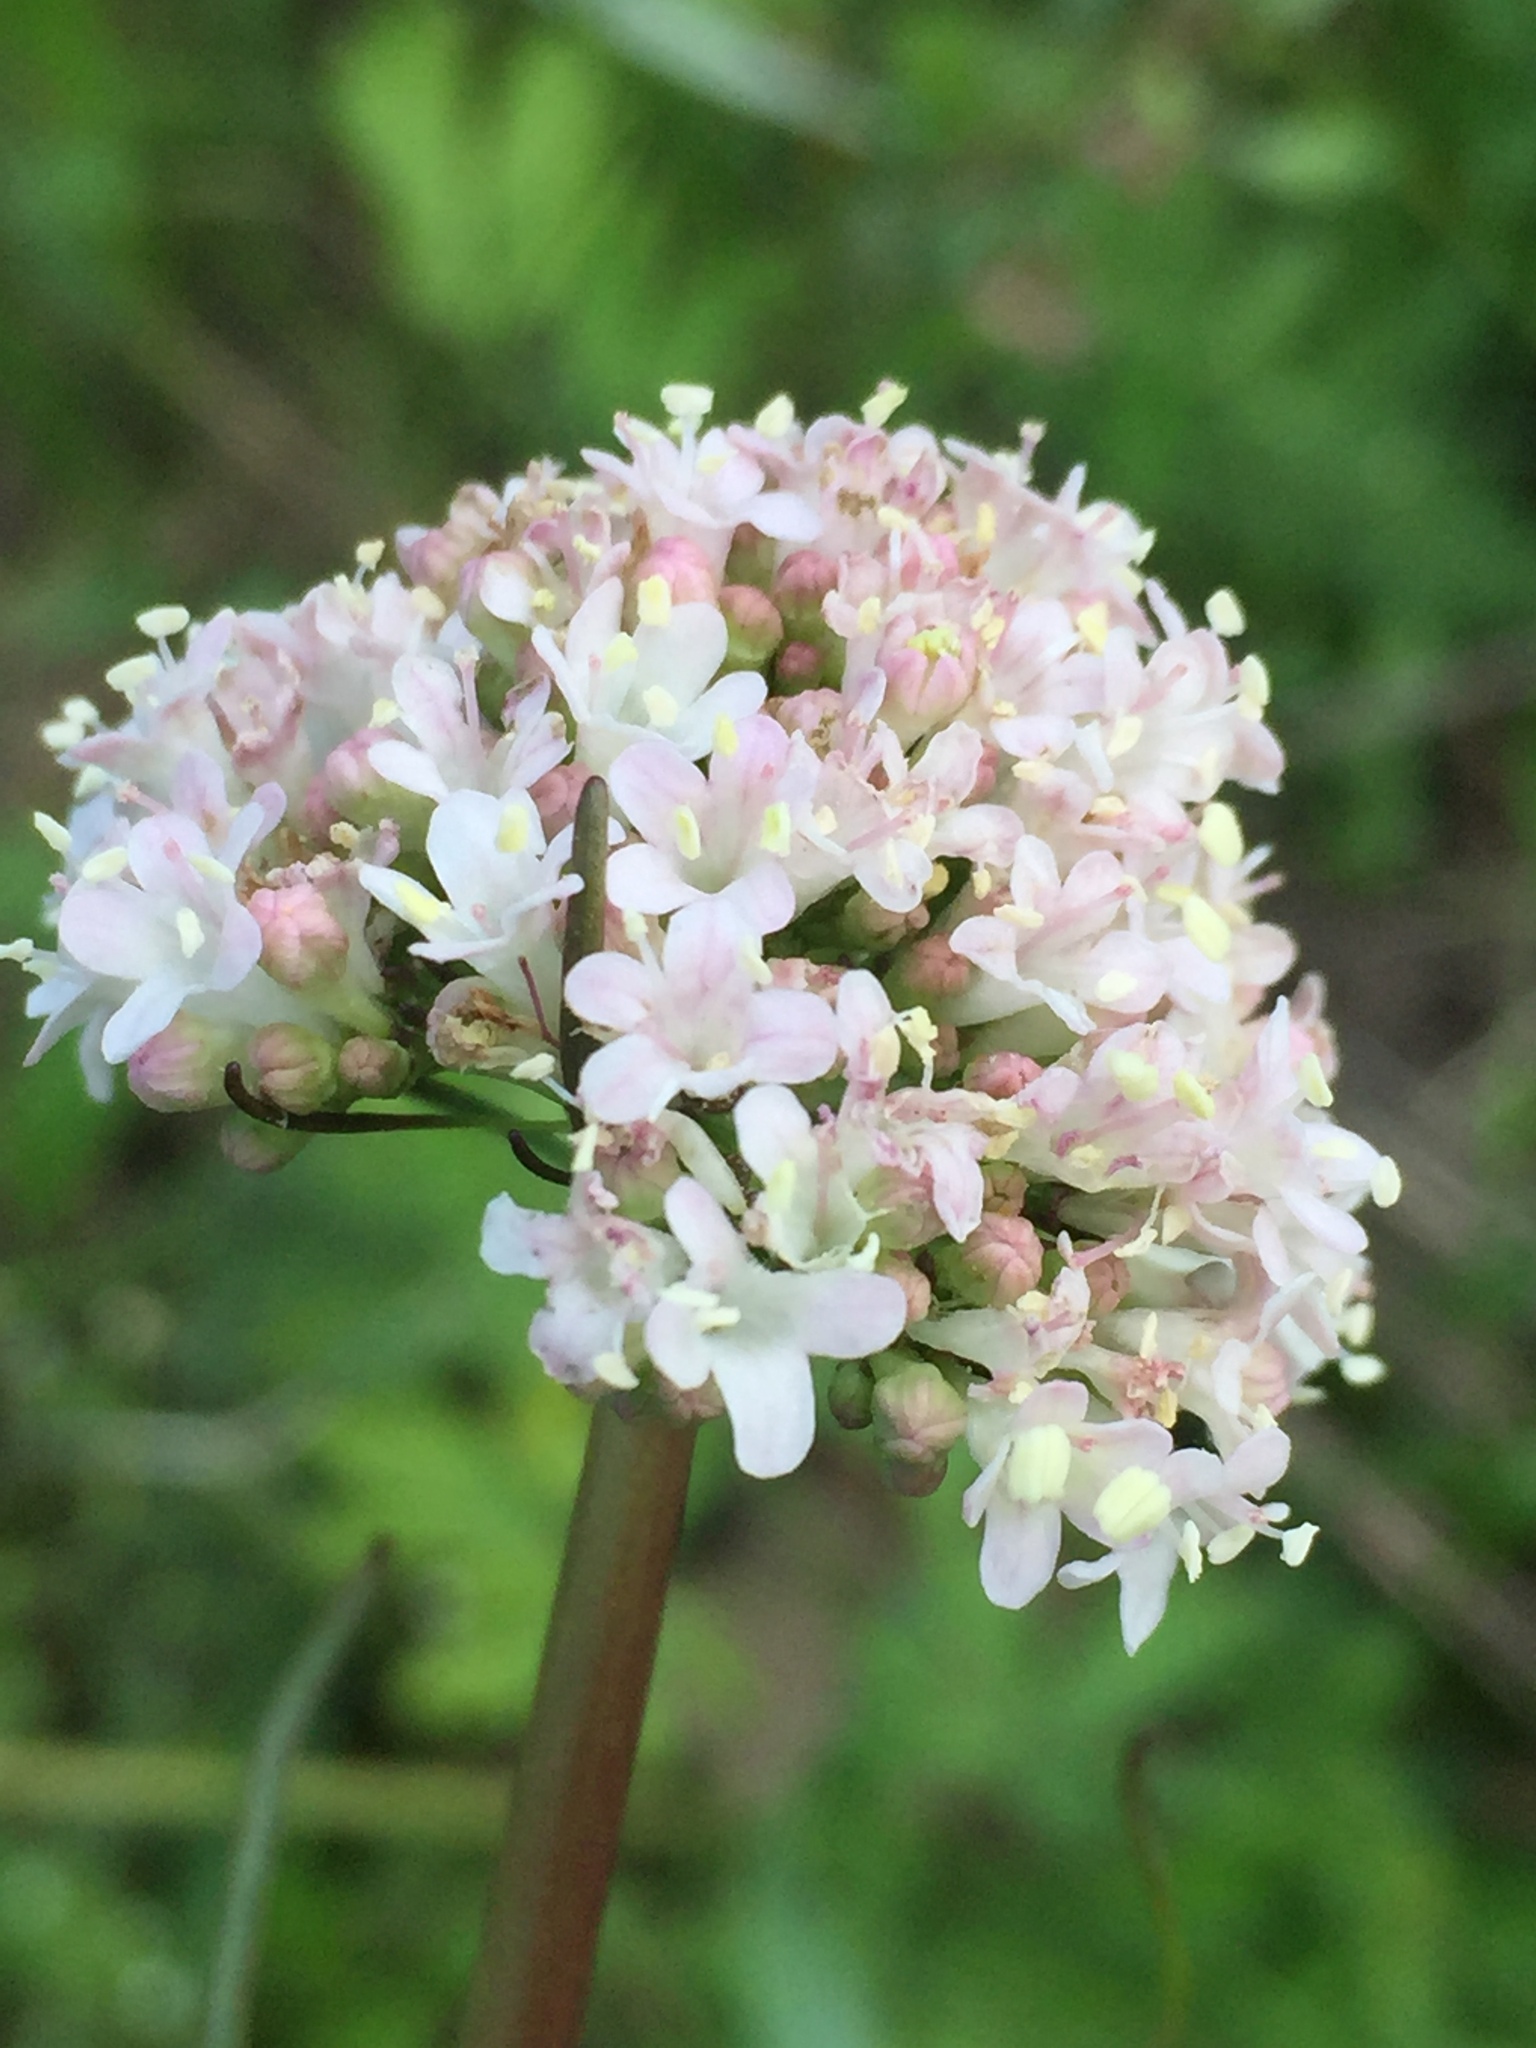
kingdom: Plantae
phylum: Tracheophyta
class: Magnoliopsida
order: Dipsacales
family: Caprifoliaceae
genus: Valeriana
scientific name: Valeriana tuberosa
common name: Tuberous valerian
